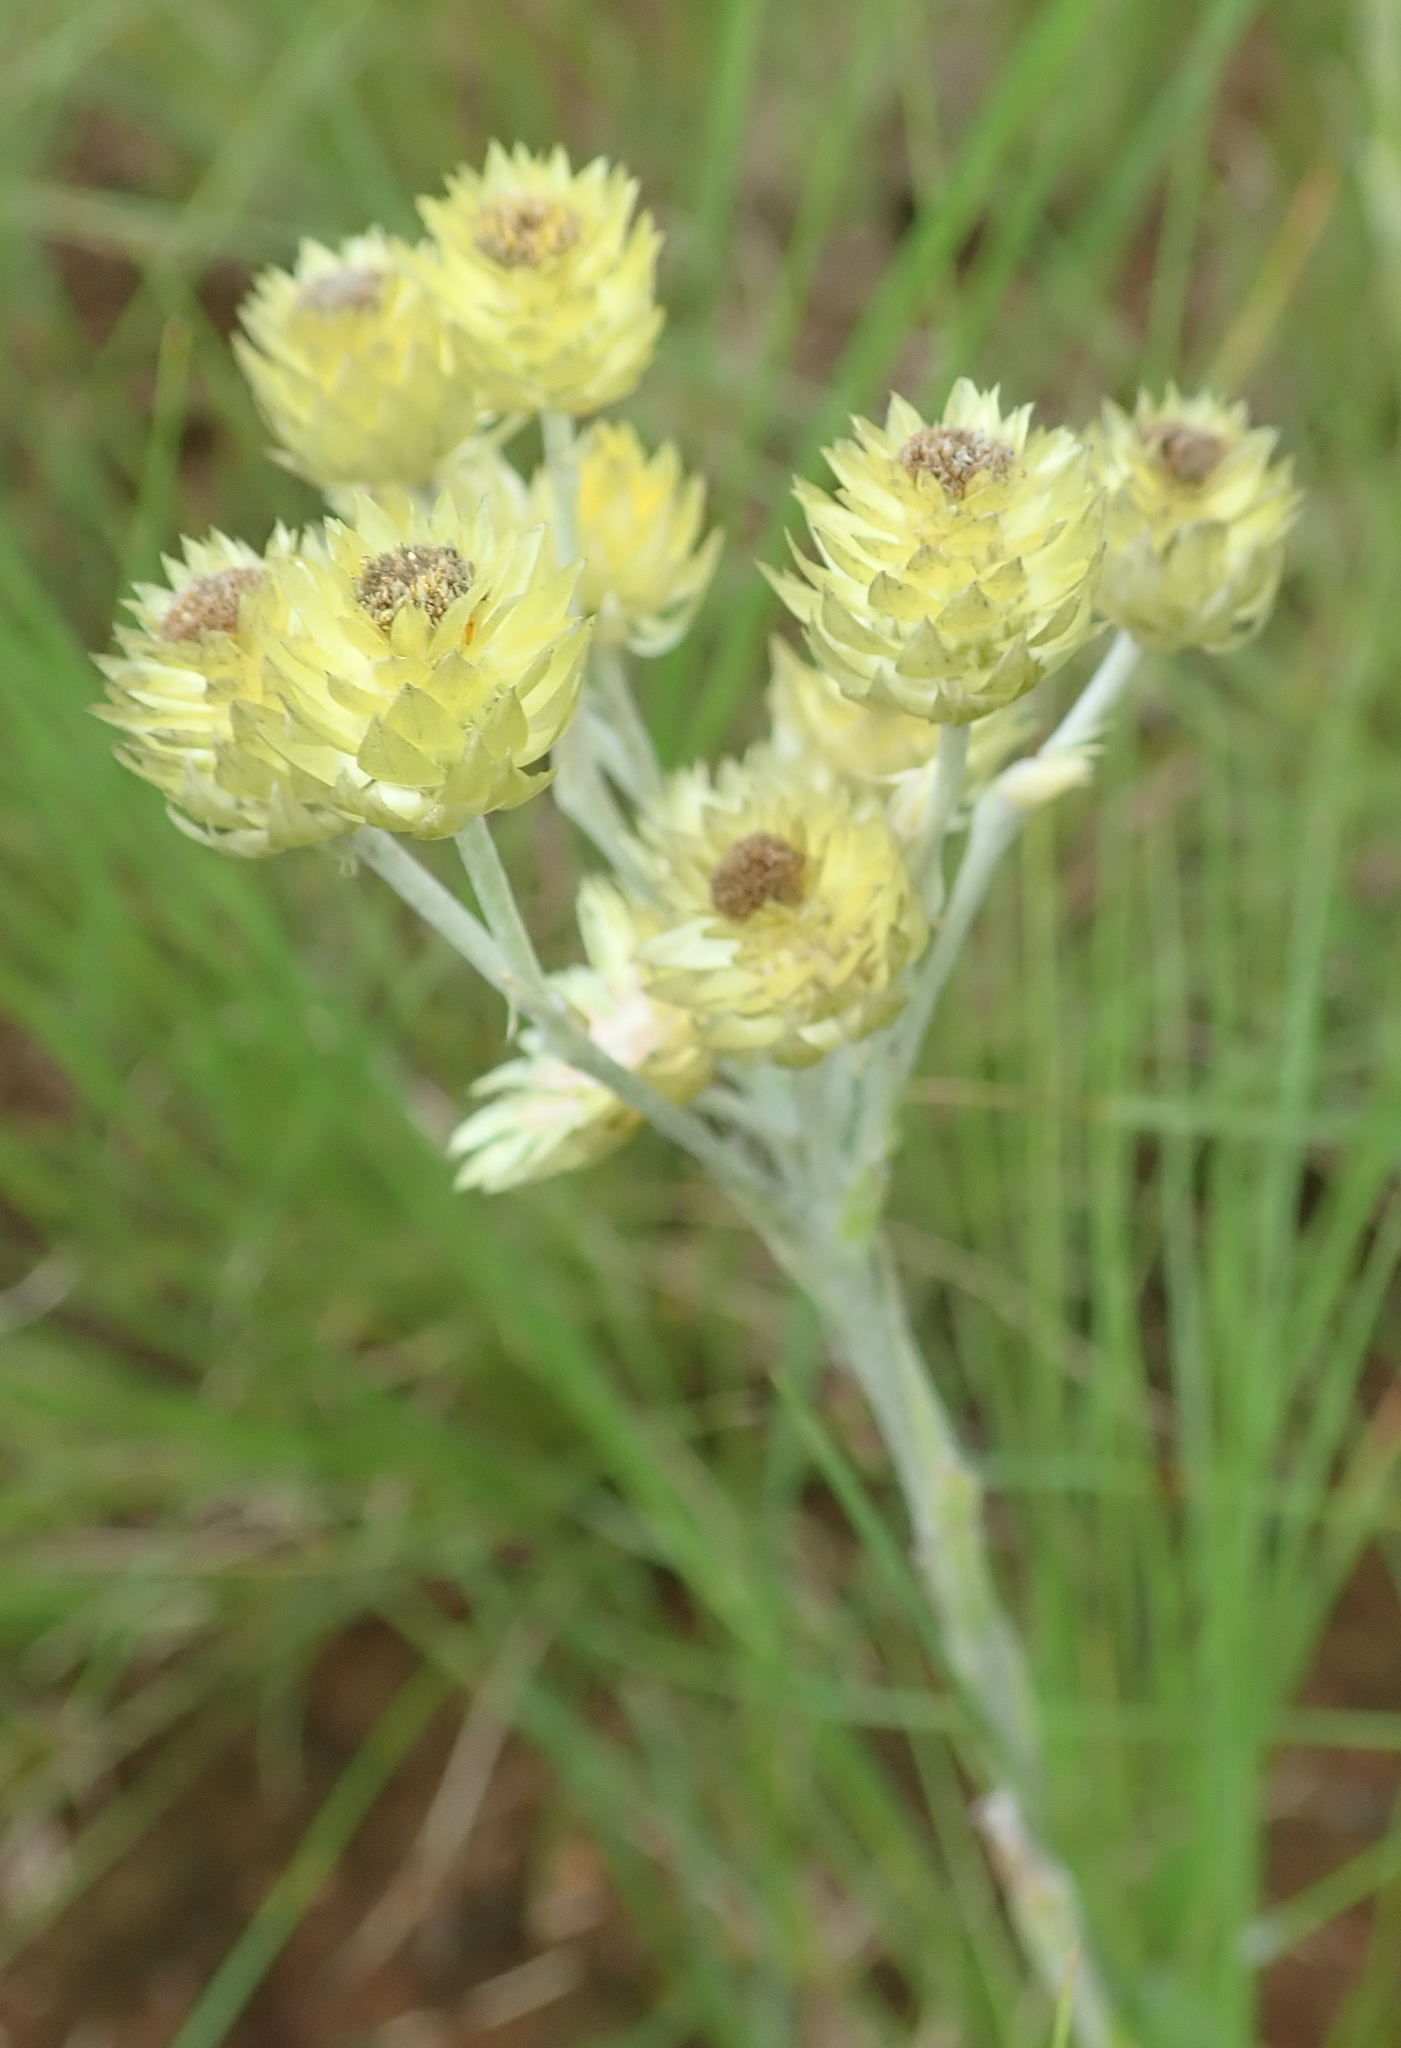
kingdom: Plantae
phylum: Tracheophyta
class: Magnoliopsida
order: Asterales
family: Asteraceae
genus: Helichrysum
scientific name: Helichrysum mixtum
